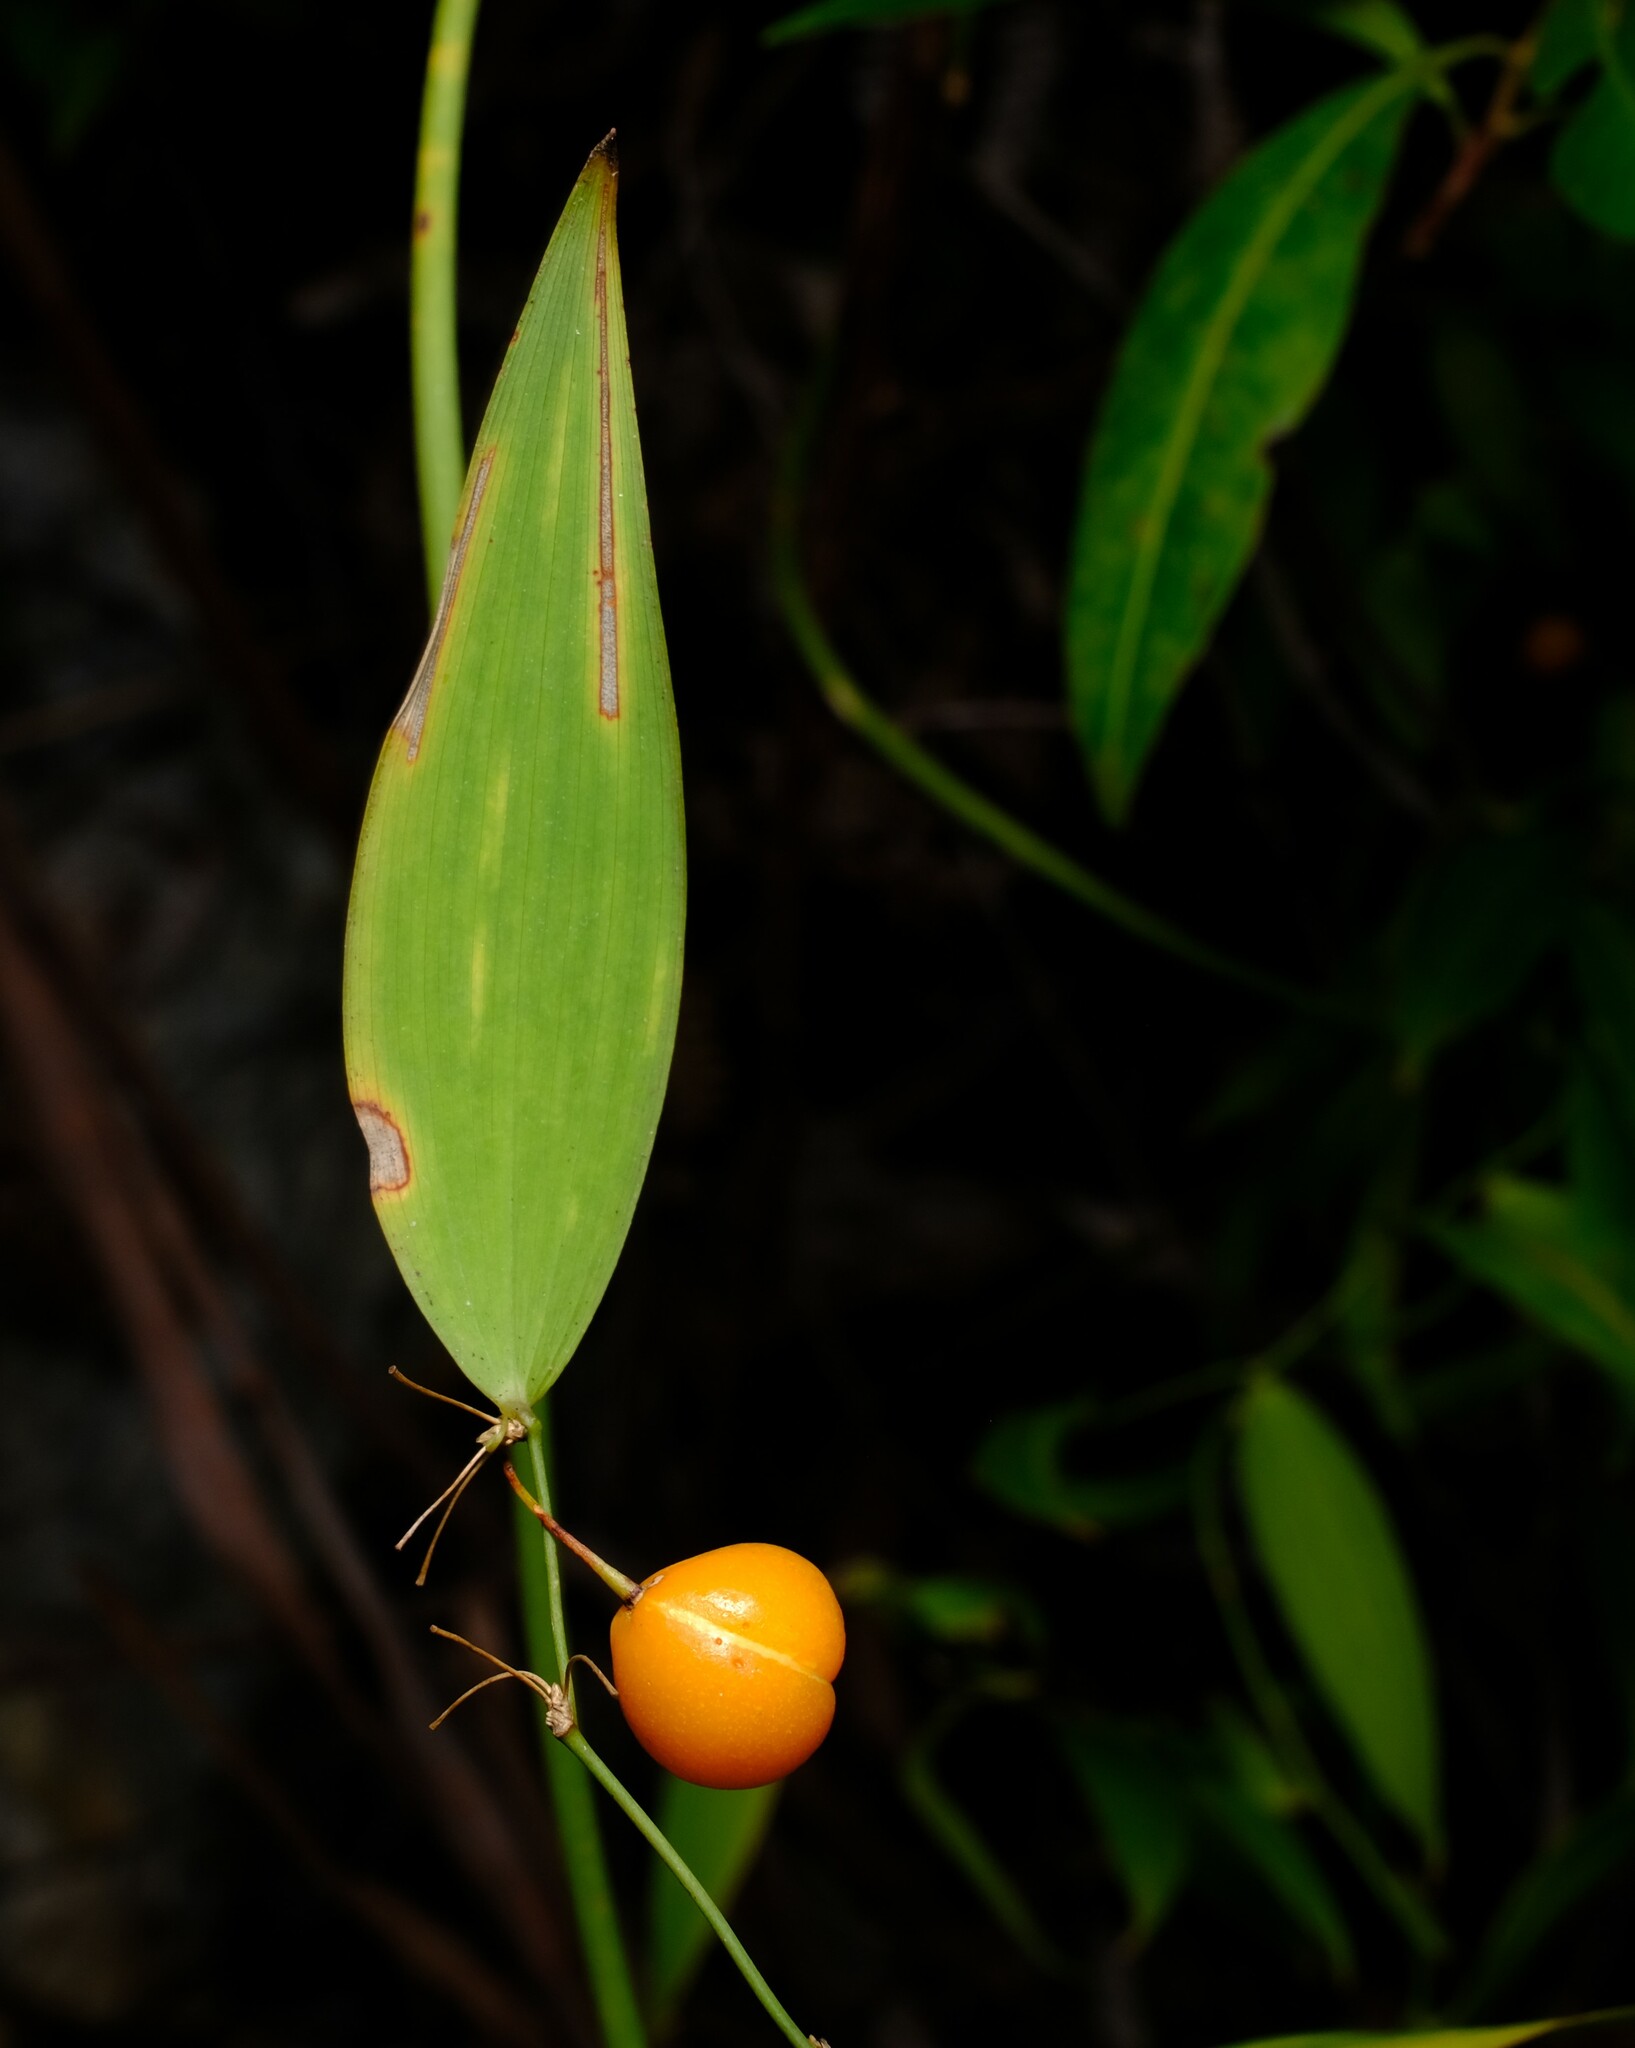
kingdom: Plantae
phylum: Tracheophyta
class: Liliopsida
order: Asparagales
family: Asparagaceae
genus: Eustrephus
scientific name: Eustrephus latifolius
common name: Orangevine
